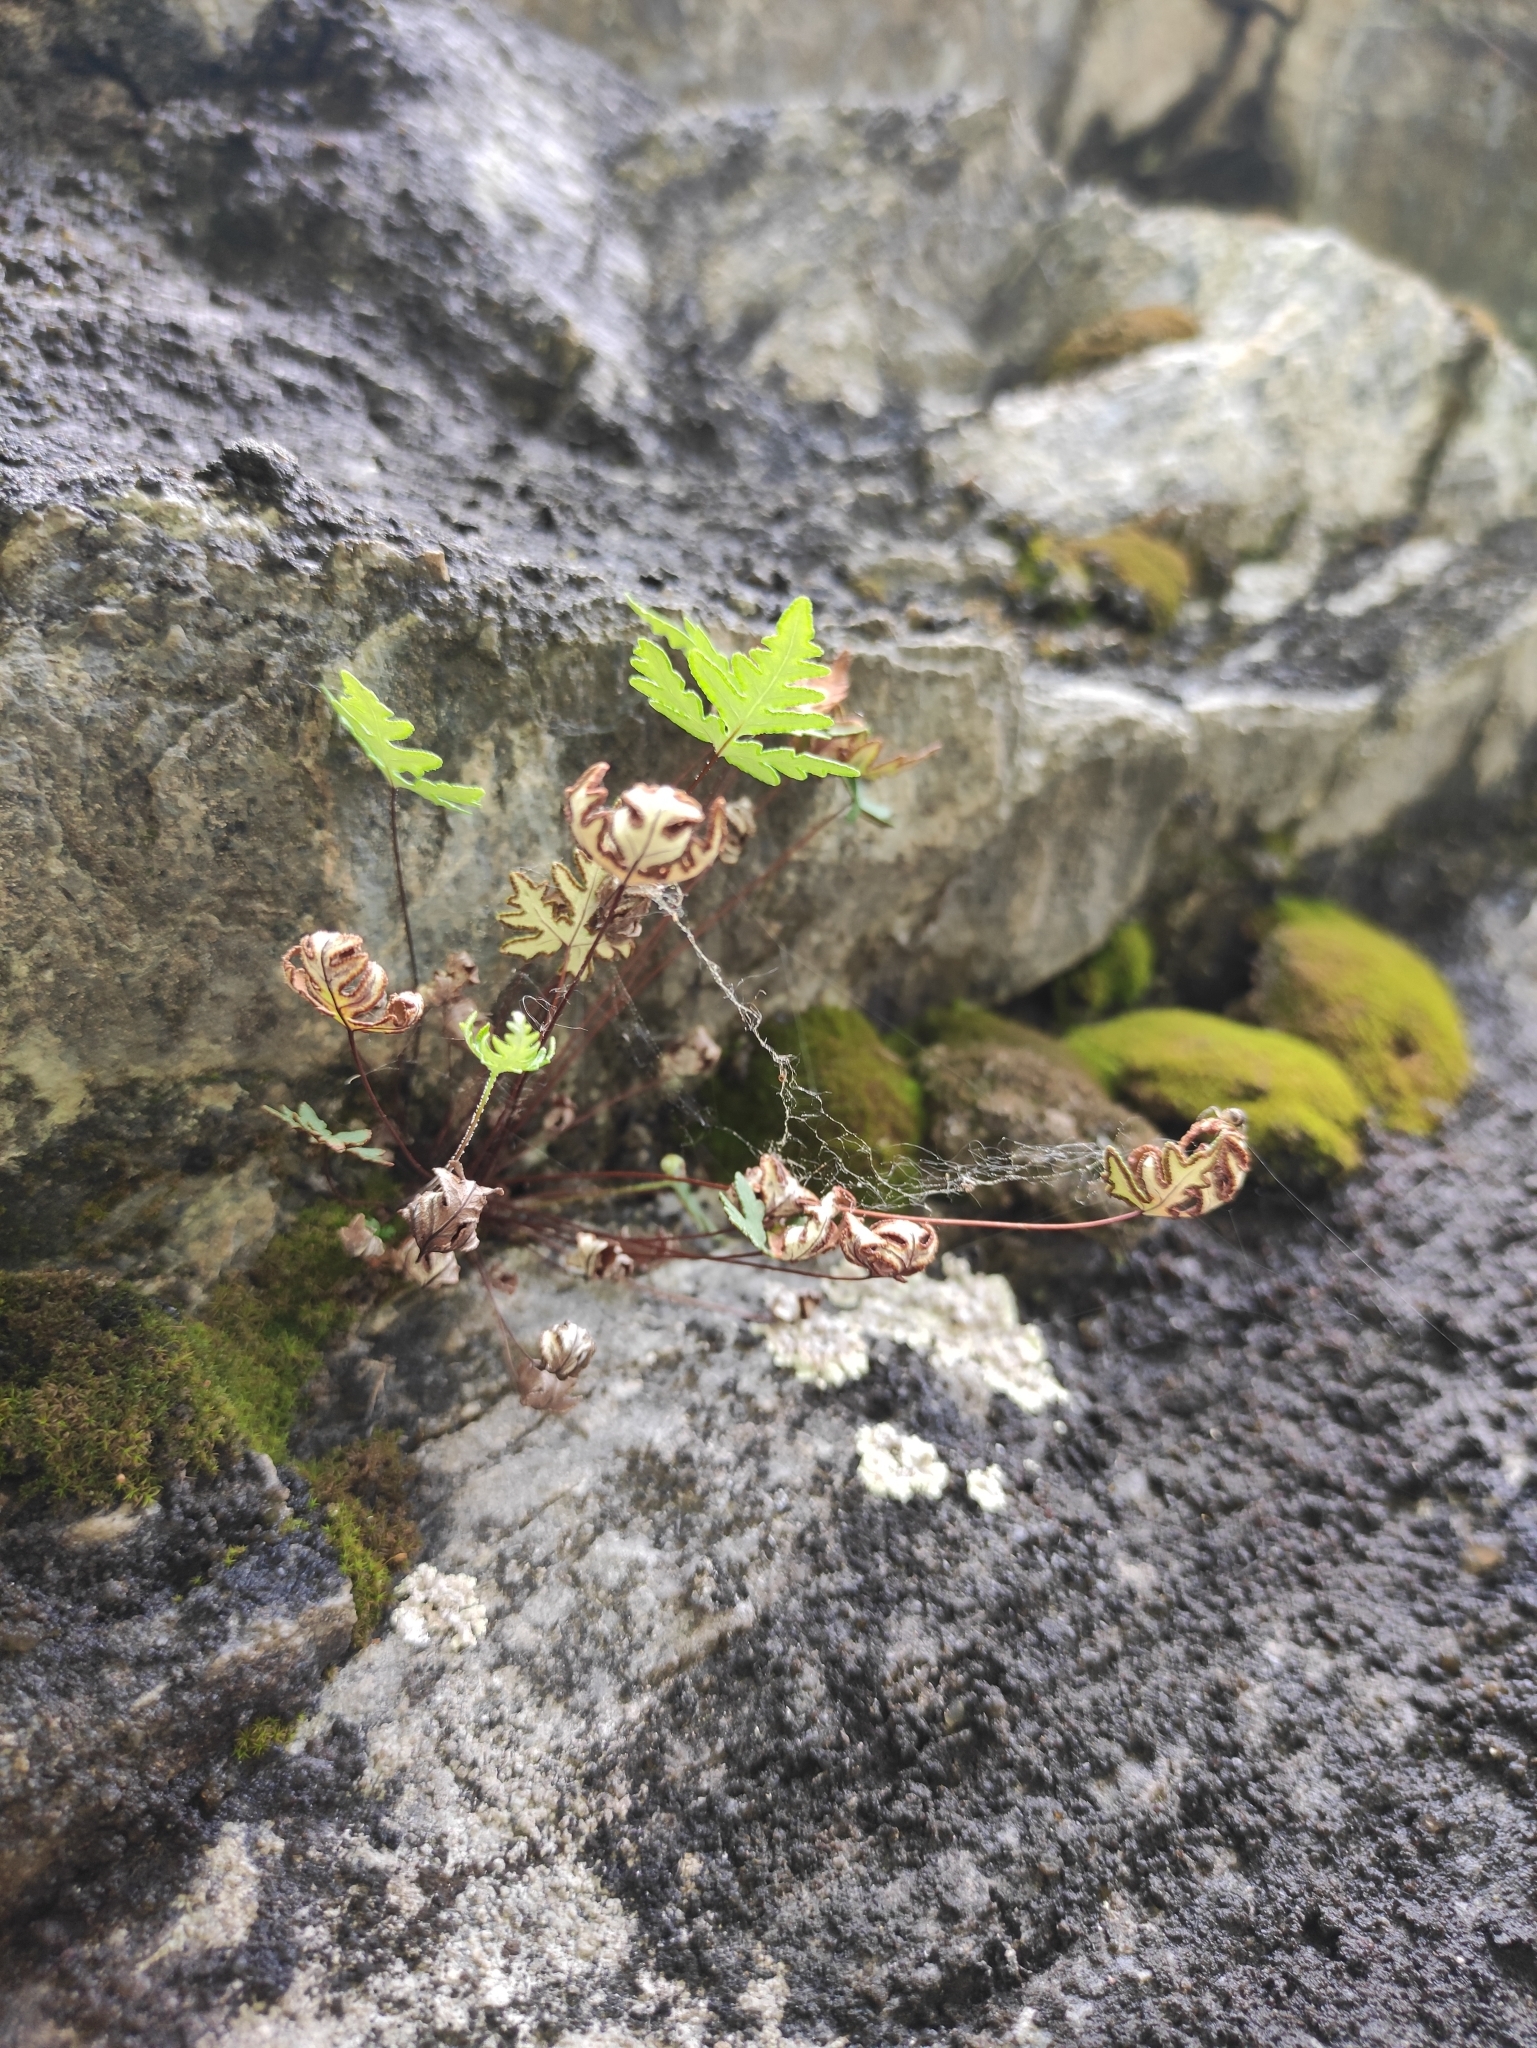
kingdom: Plantae
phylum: Tracheophyta
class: Polypodiopsida
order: Polypodiales
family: Pteridaceae
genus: Aleuritopteris
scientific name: Aleuritopteris argentea
